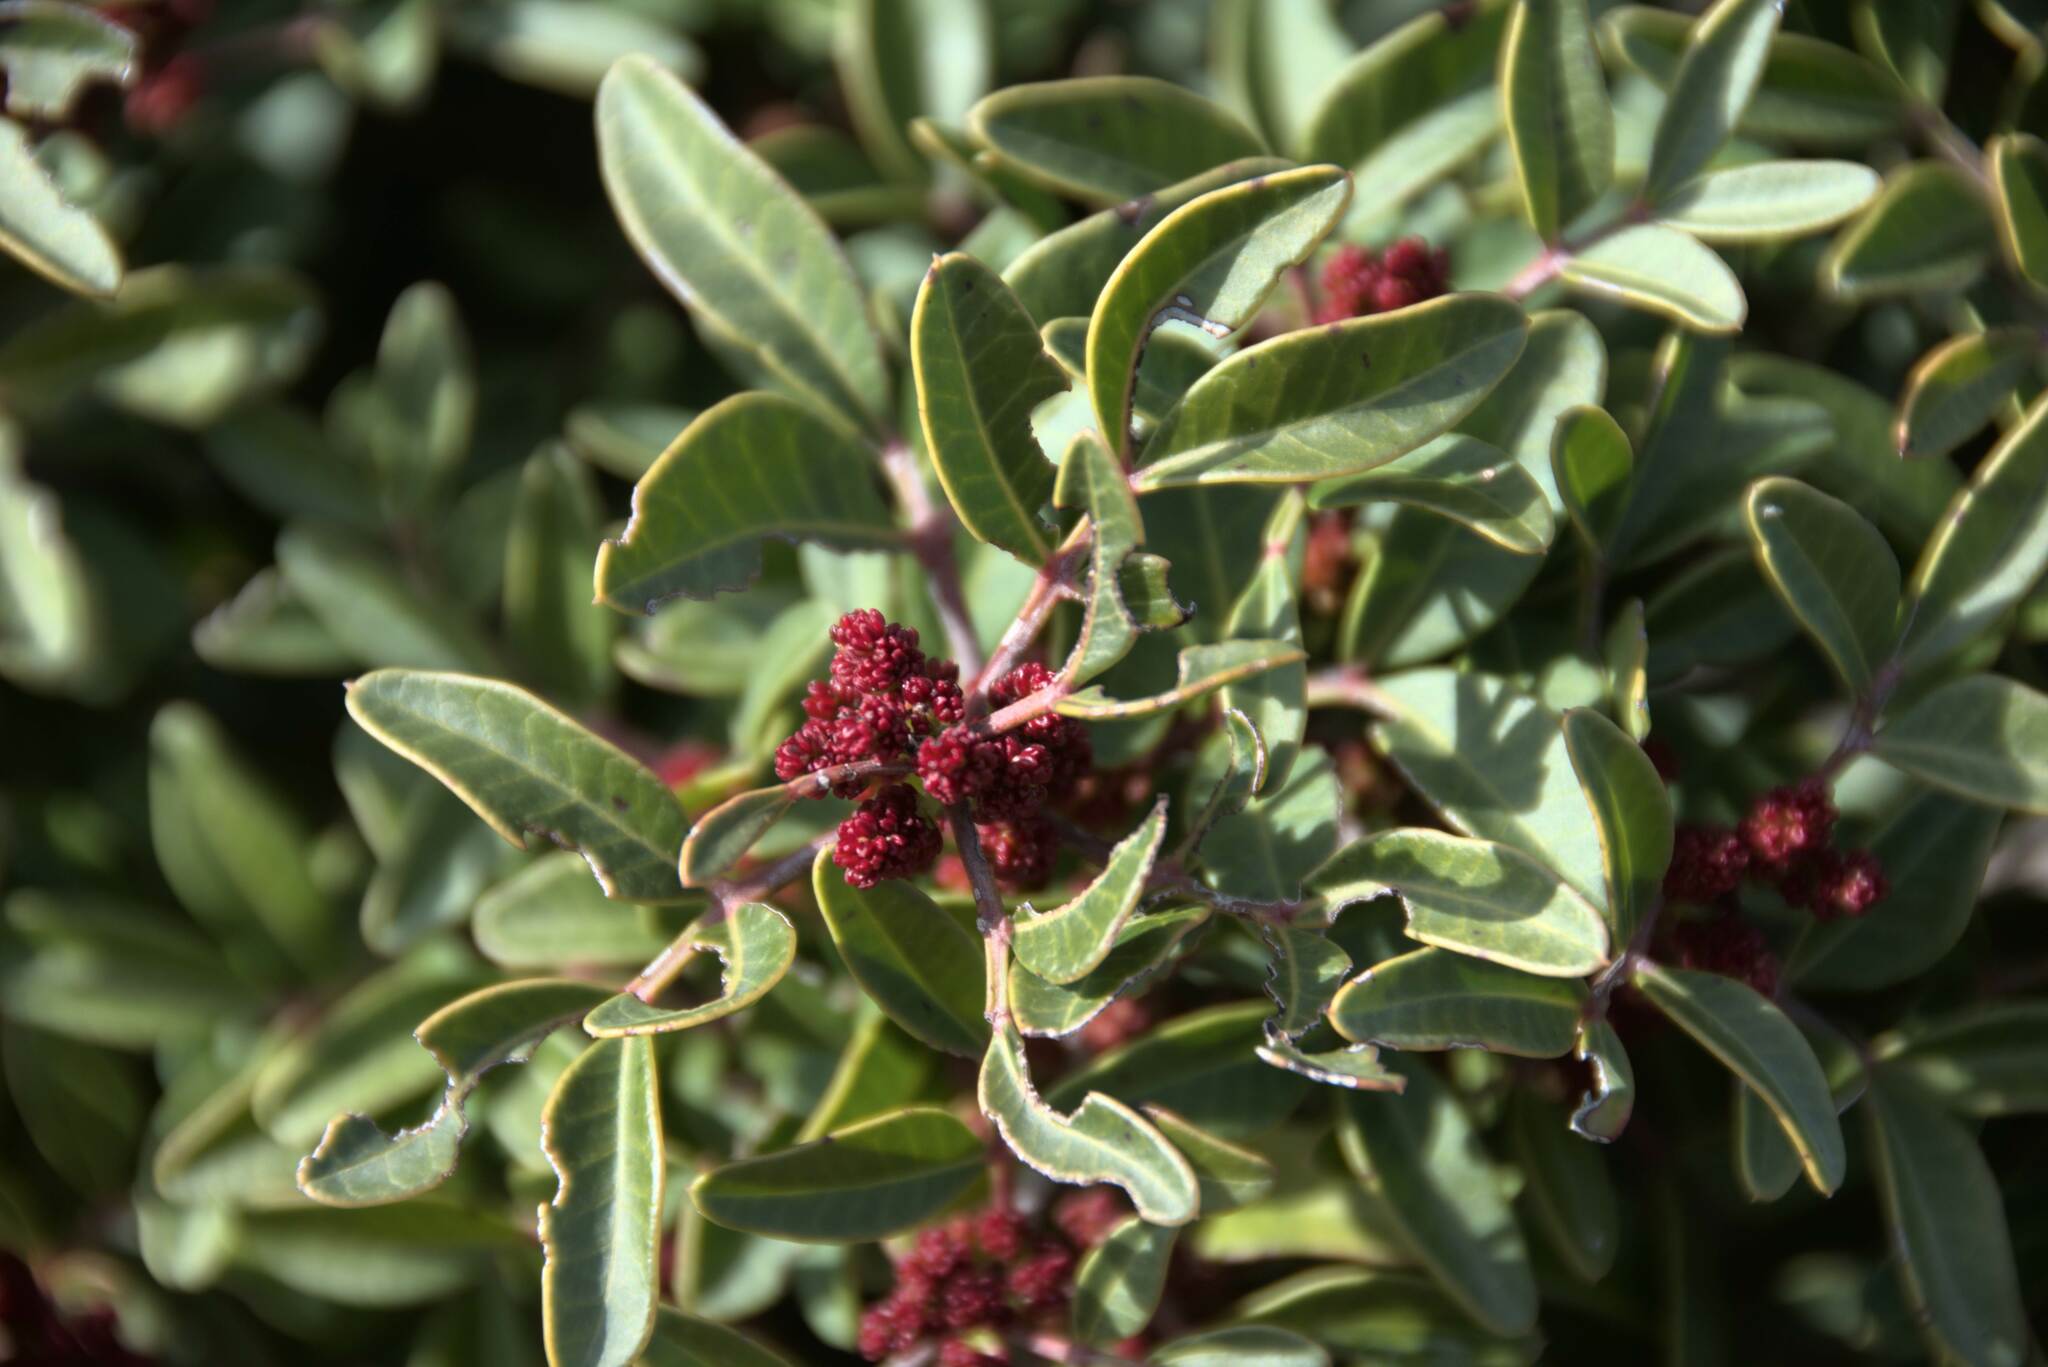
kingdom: Plantae
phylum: Tracheophyta
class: Magnoliopsida
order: Sapindales
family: Anacardiaceae
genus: Pistacia
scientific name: Pistacia lentiscus
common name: Lentisk
